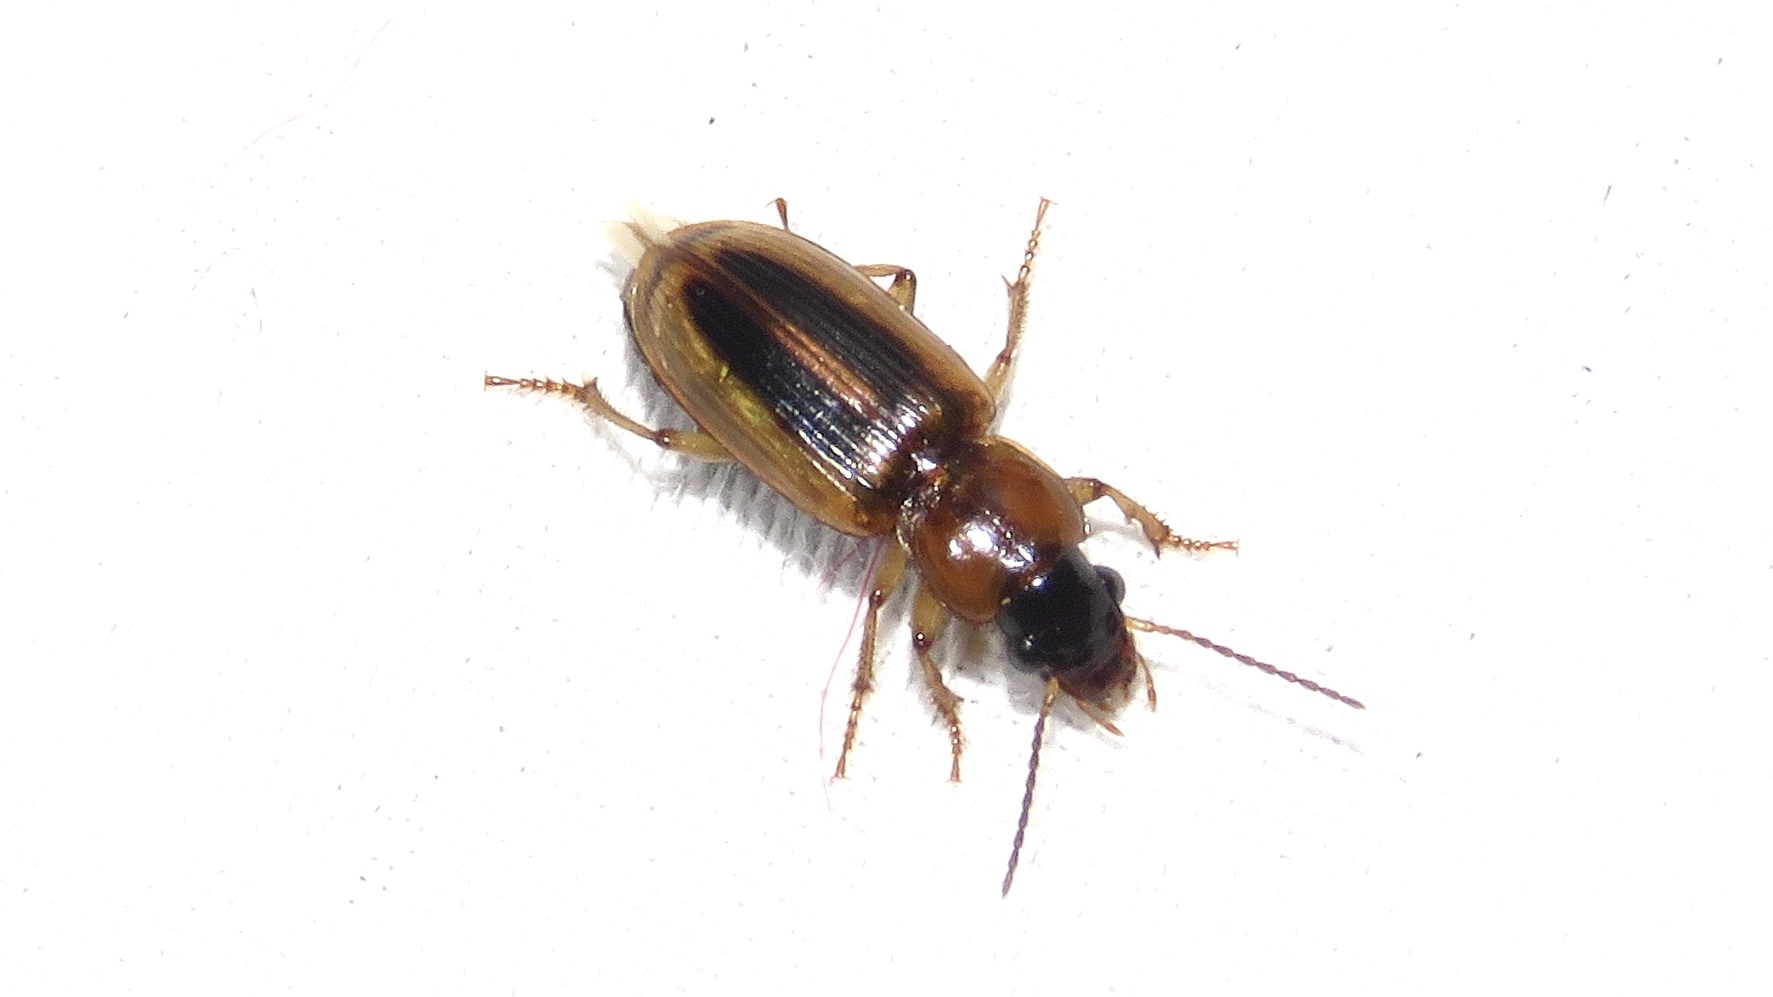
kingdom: Animalia
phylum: Arthropoda
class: Insecta
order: Coleoptera
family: Carabidae
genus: Stenolophus
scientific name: Stenolophus lecontei
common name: Leconte's seedcorn beetle
